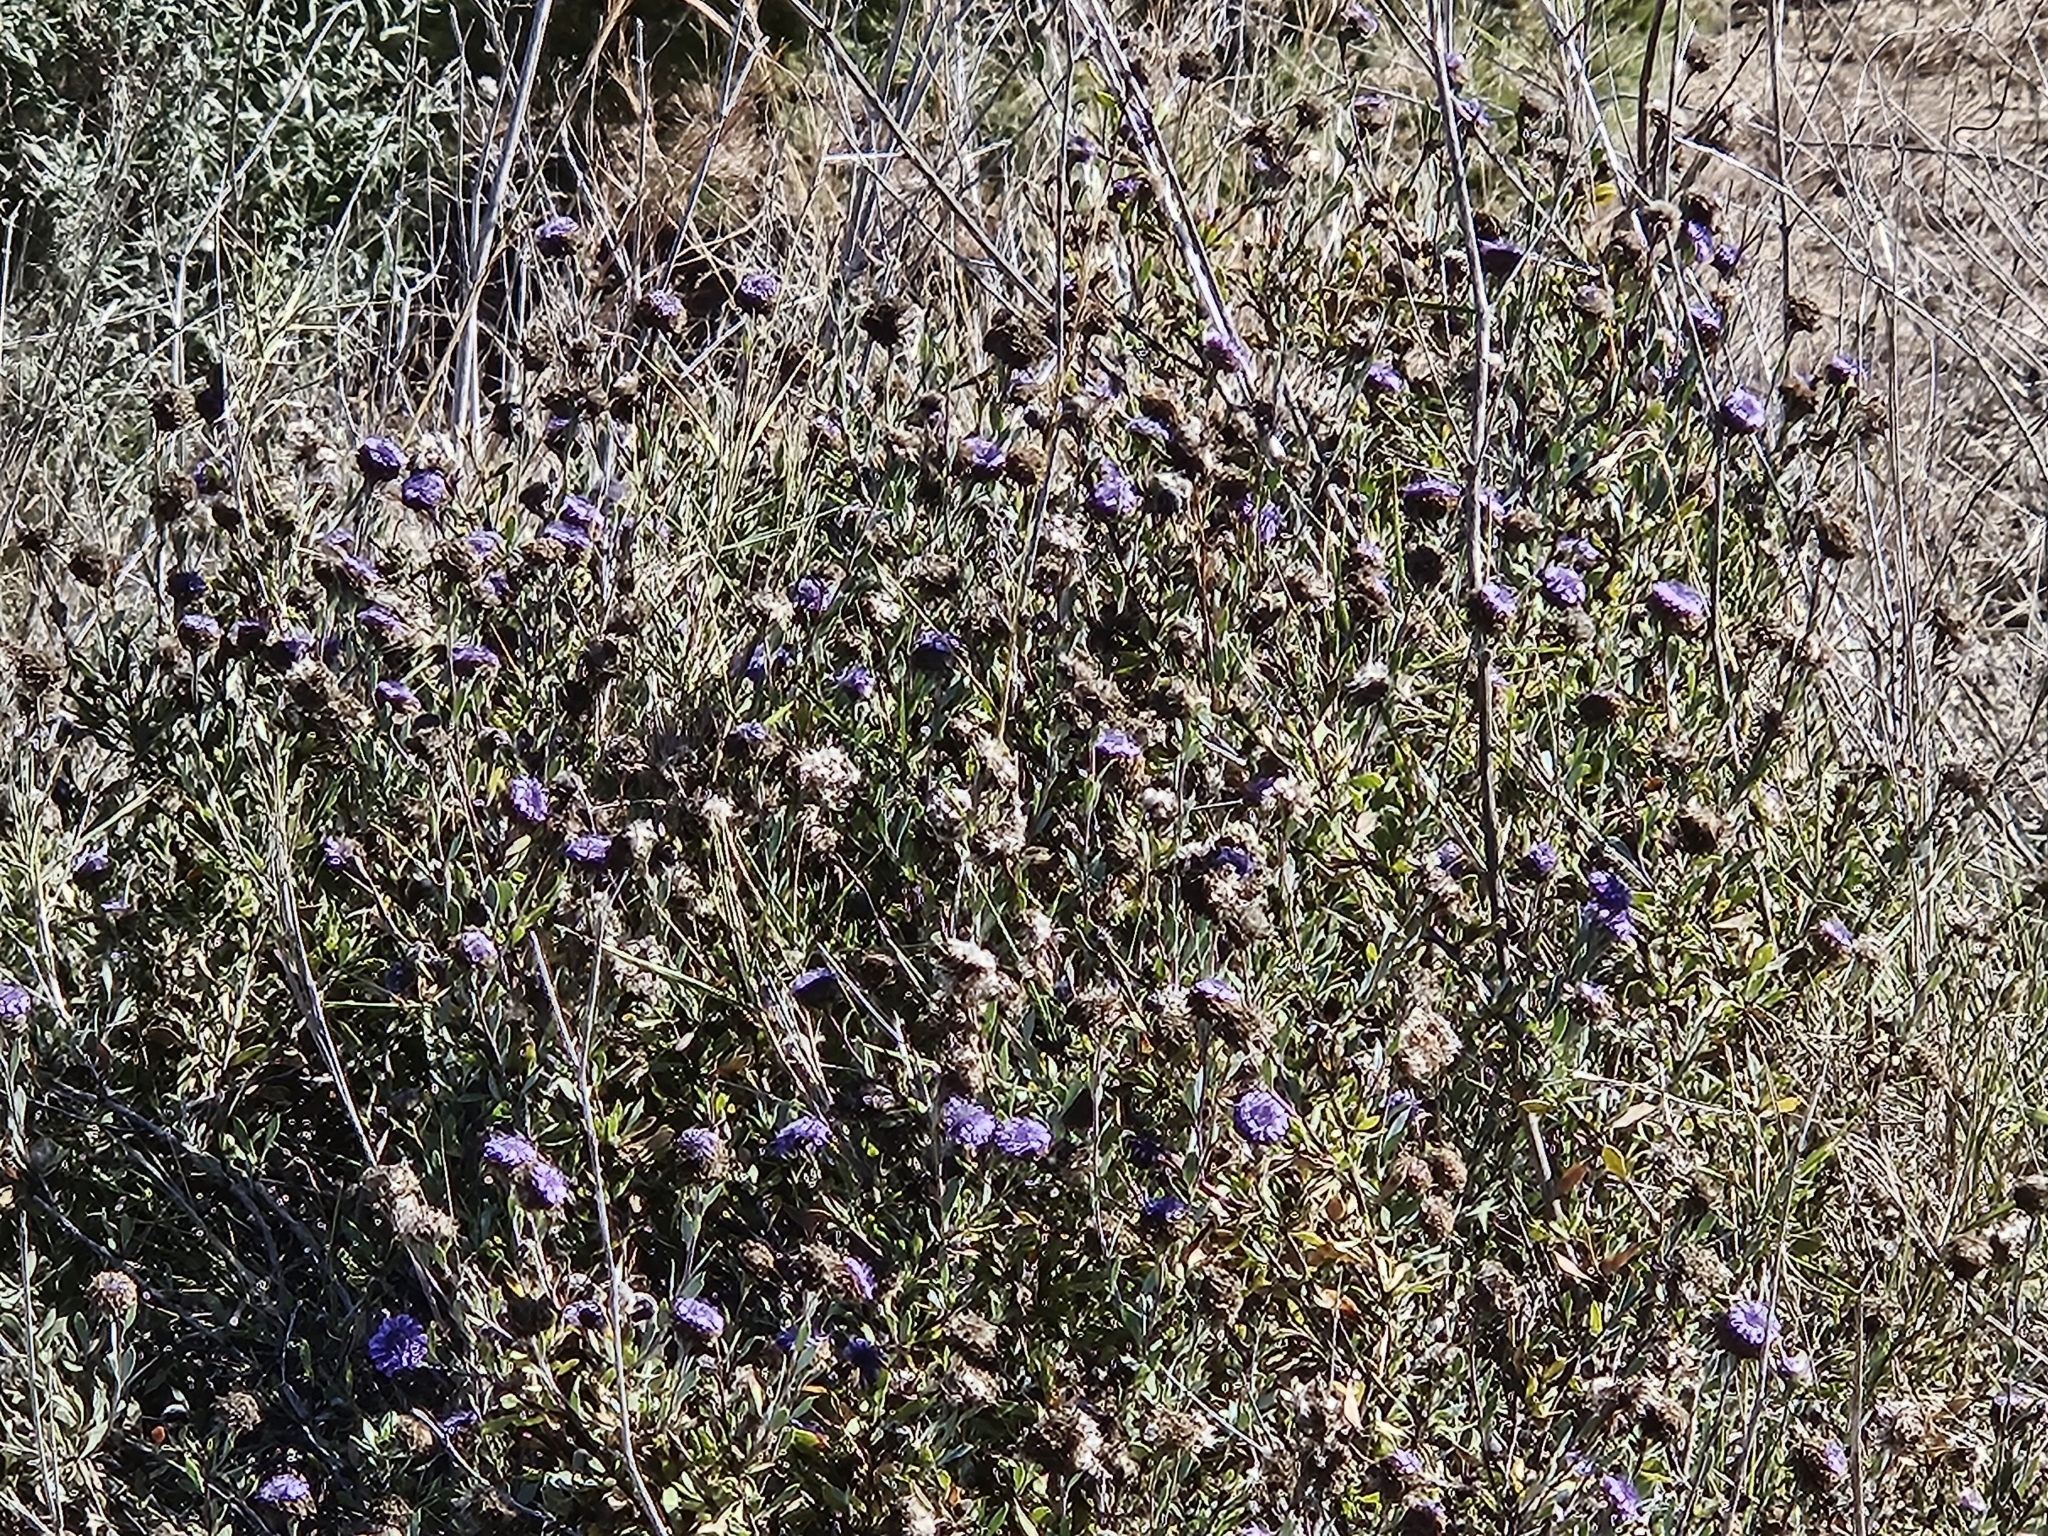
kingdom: Plantae
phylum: Tracheophyta
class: Magnoliopsida
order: Lamiales
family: Plantaginaceae
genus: Globularia
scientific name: Globularia alypum
